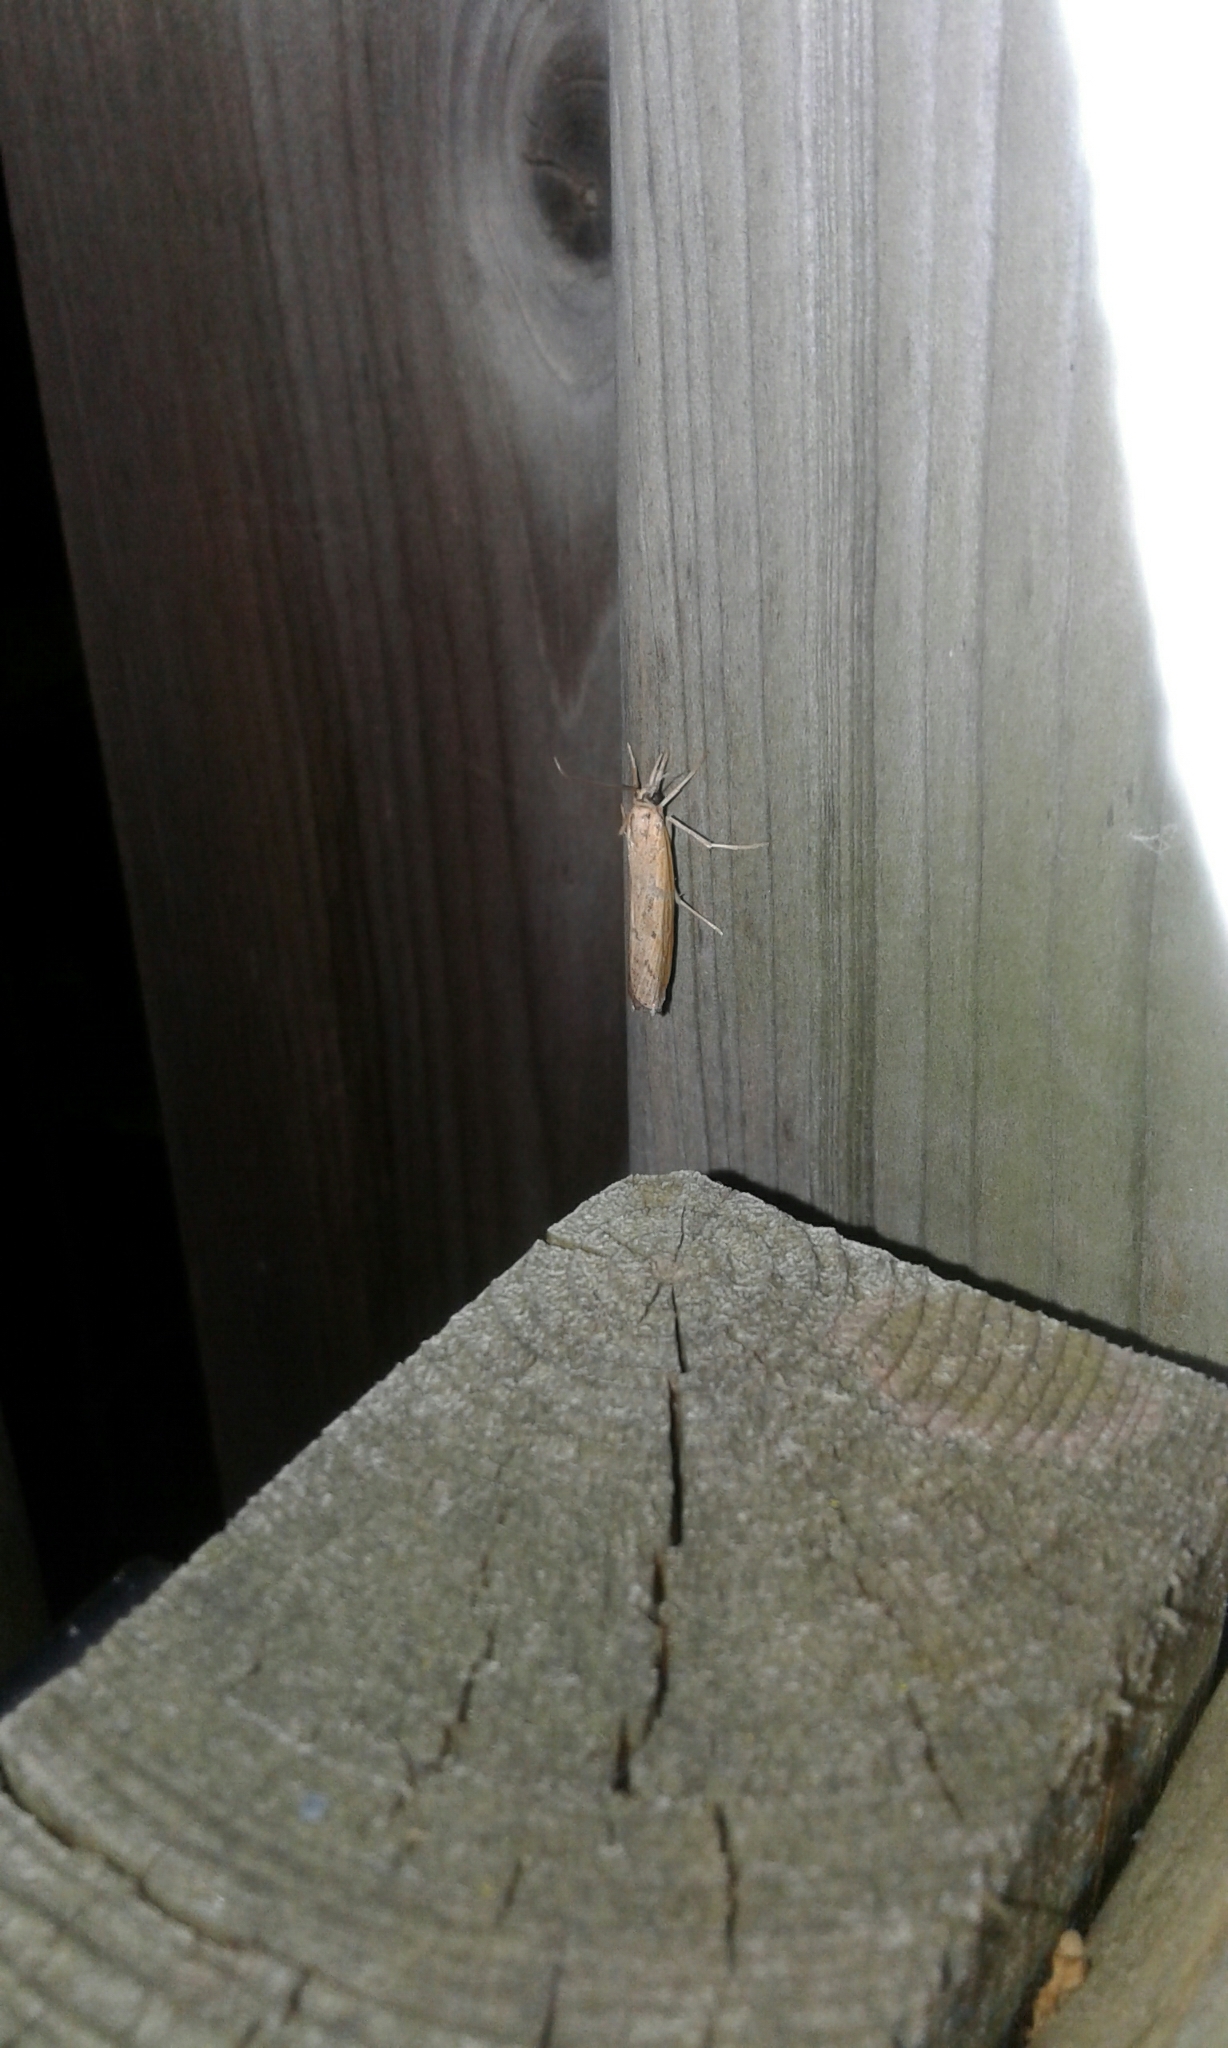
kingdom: Animalia
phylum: Arthropoda
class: Insecta
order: Lepidoptera
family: Crambidae
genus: Pediasia
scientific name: Pediasia trisecta
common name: Sod webworm moth
